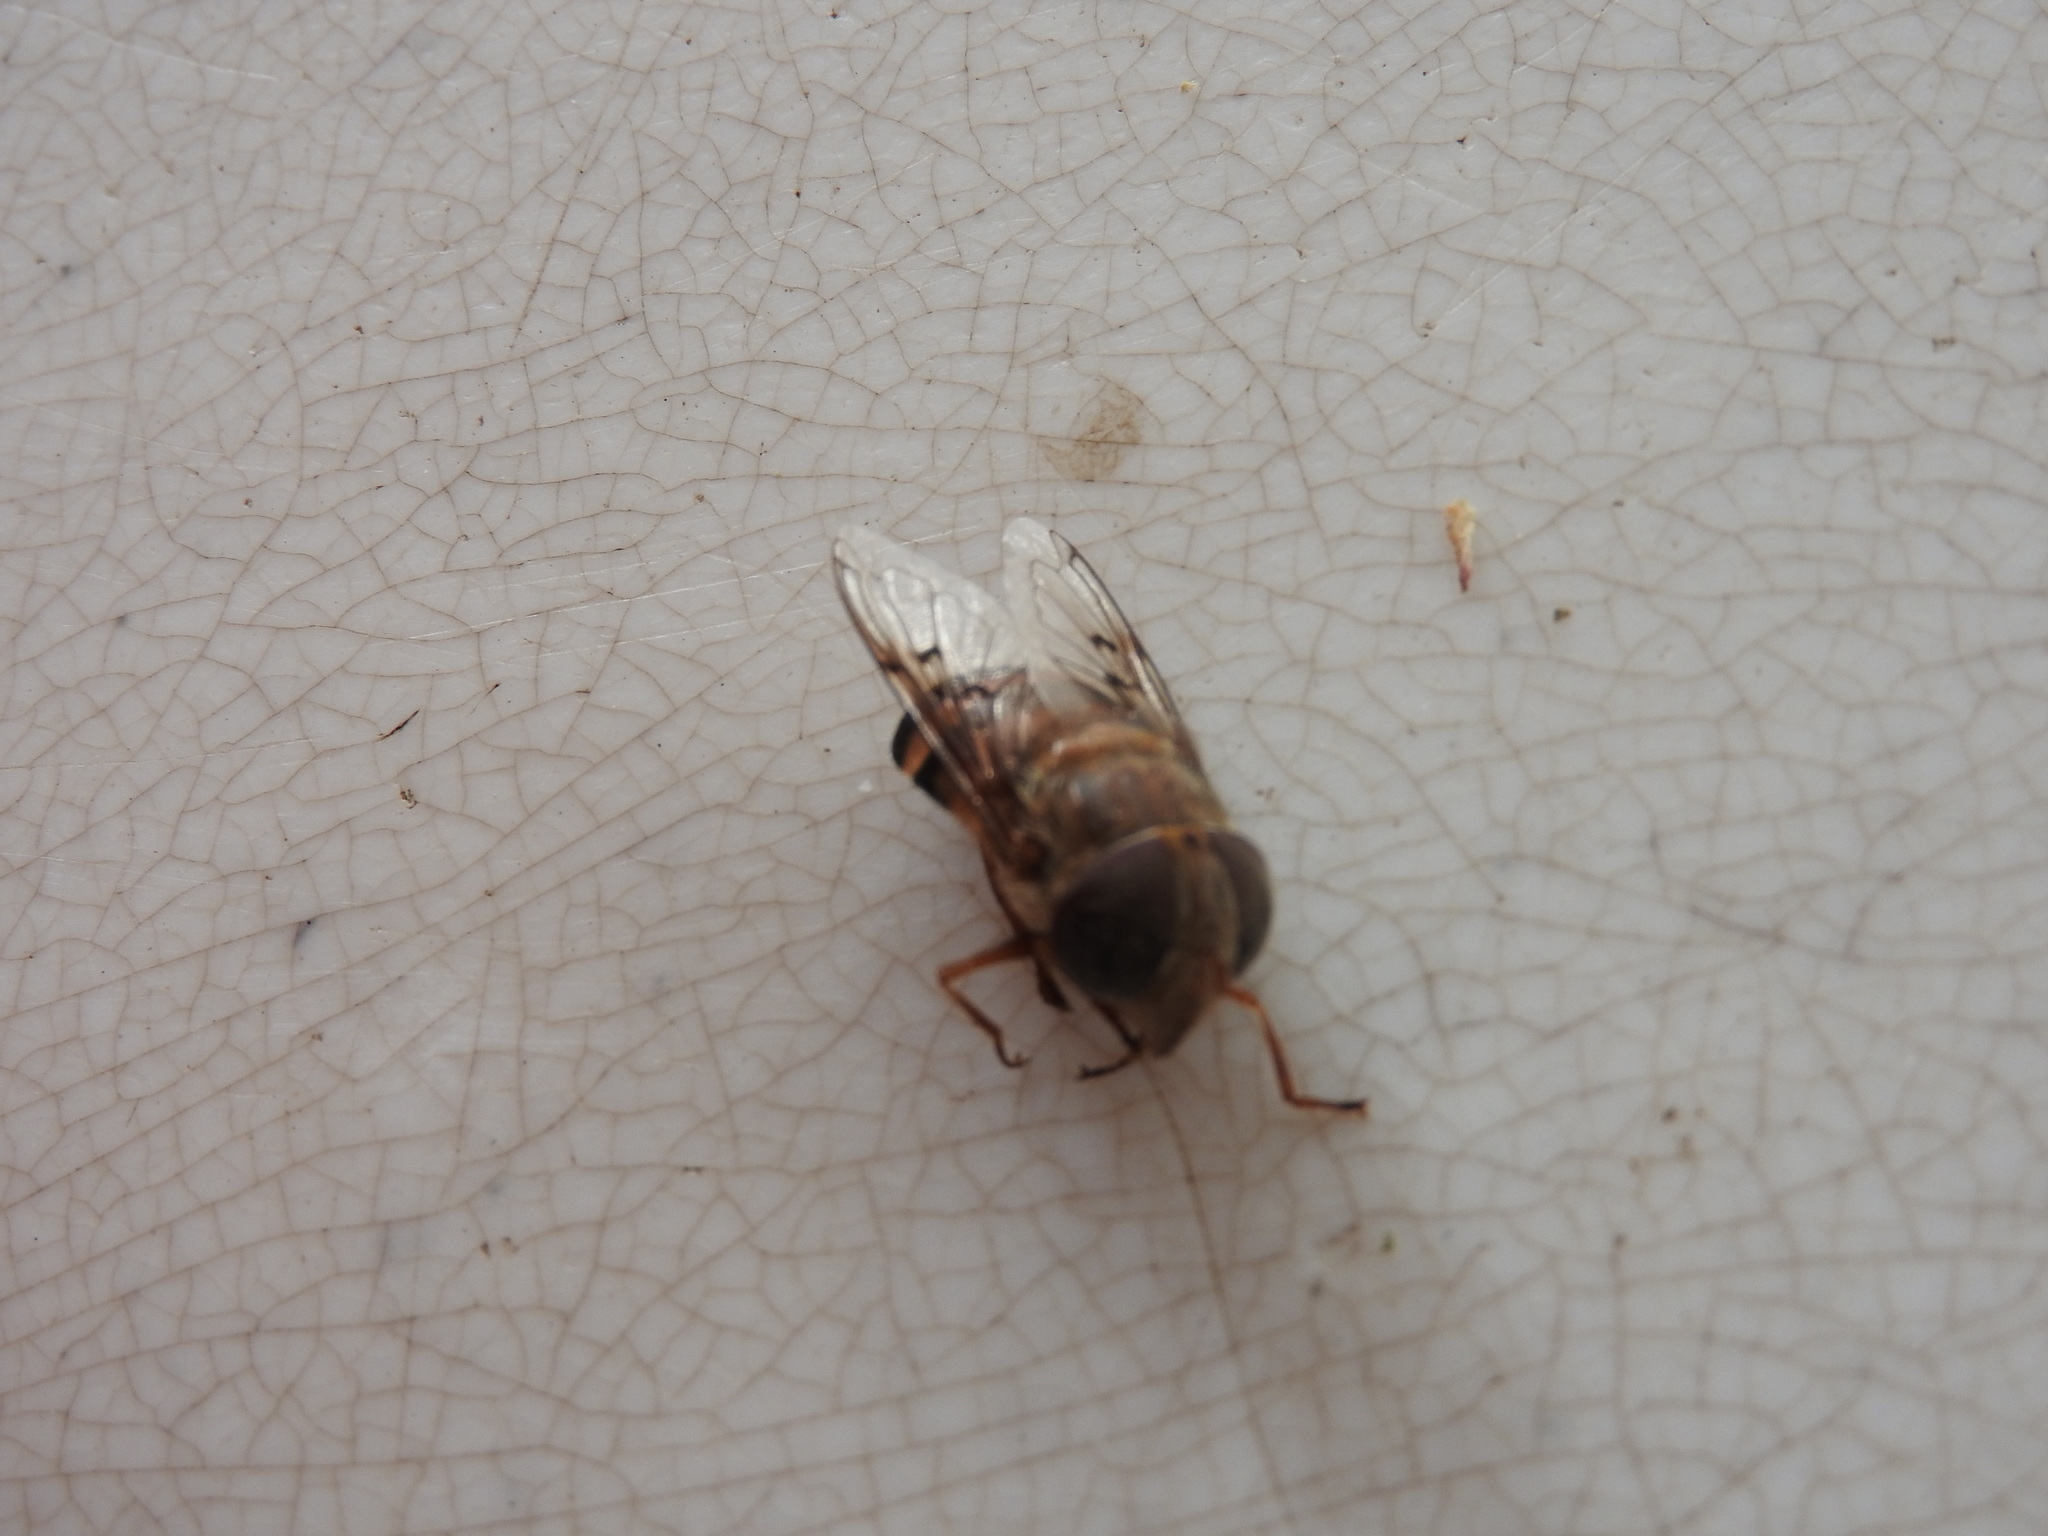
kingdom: Animalia
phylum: Arthropoda
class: Insecta
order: Diptera
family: Syrphidae
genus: Copestylum
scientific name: Copestylum macrocephalum
